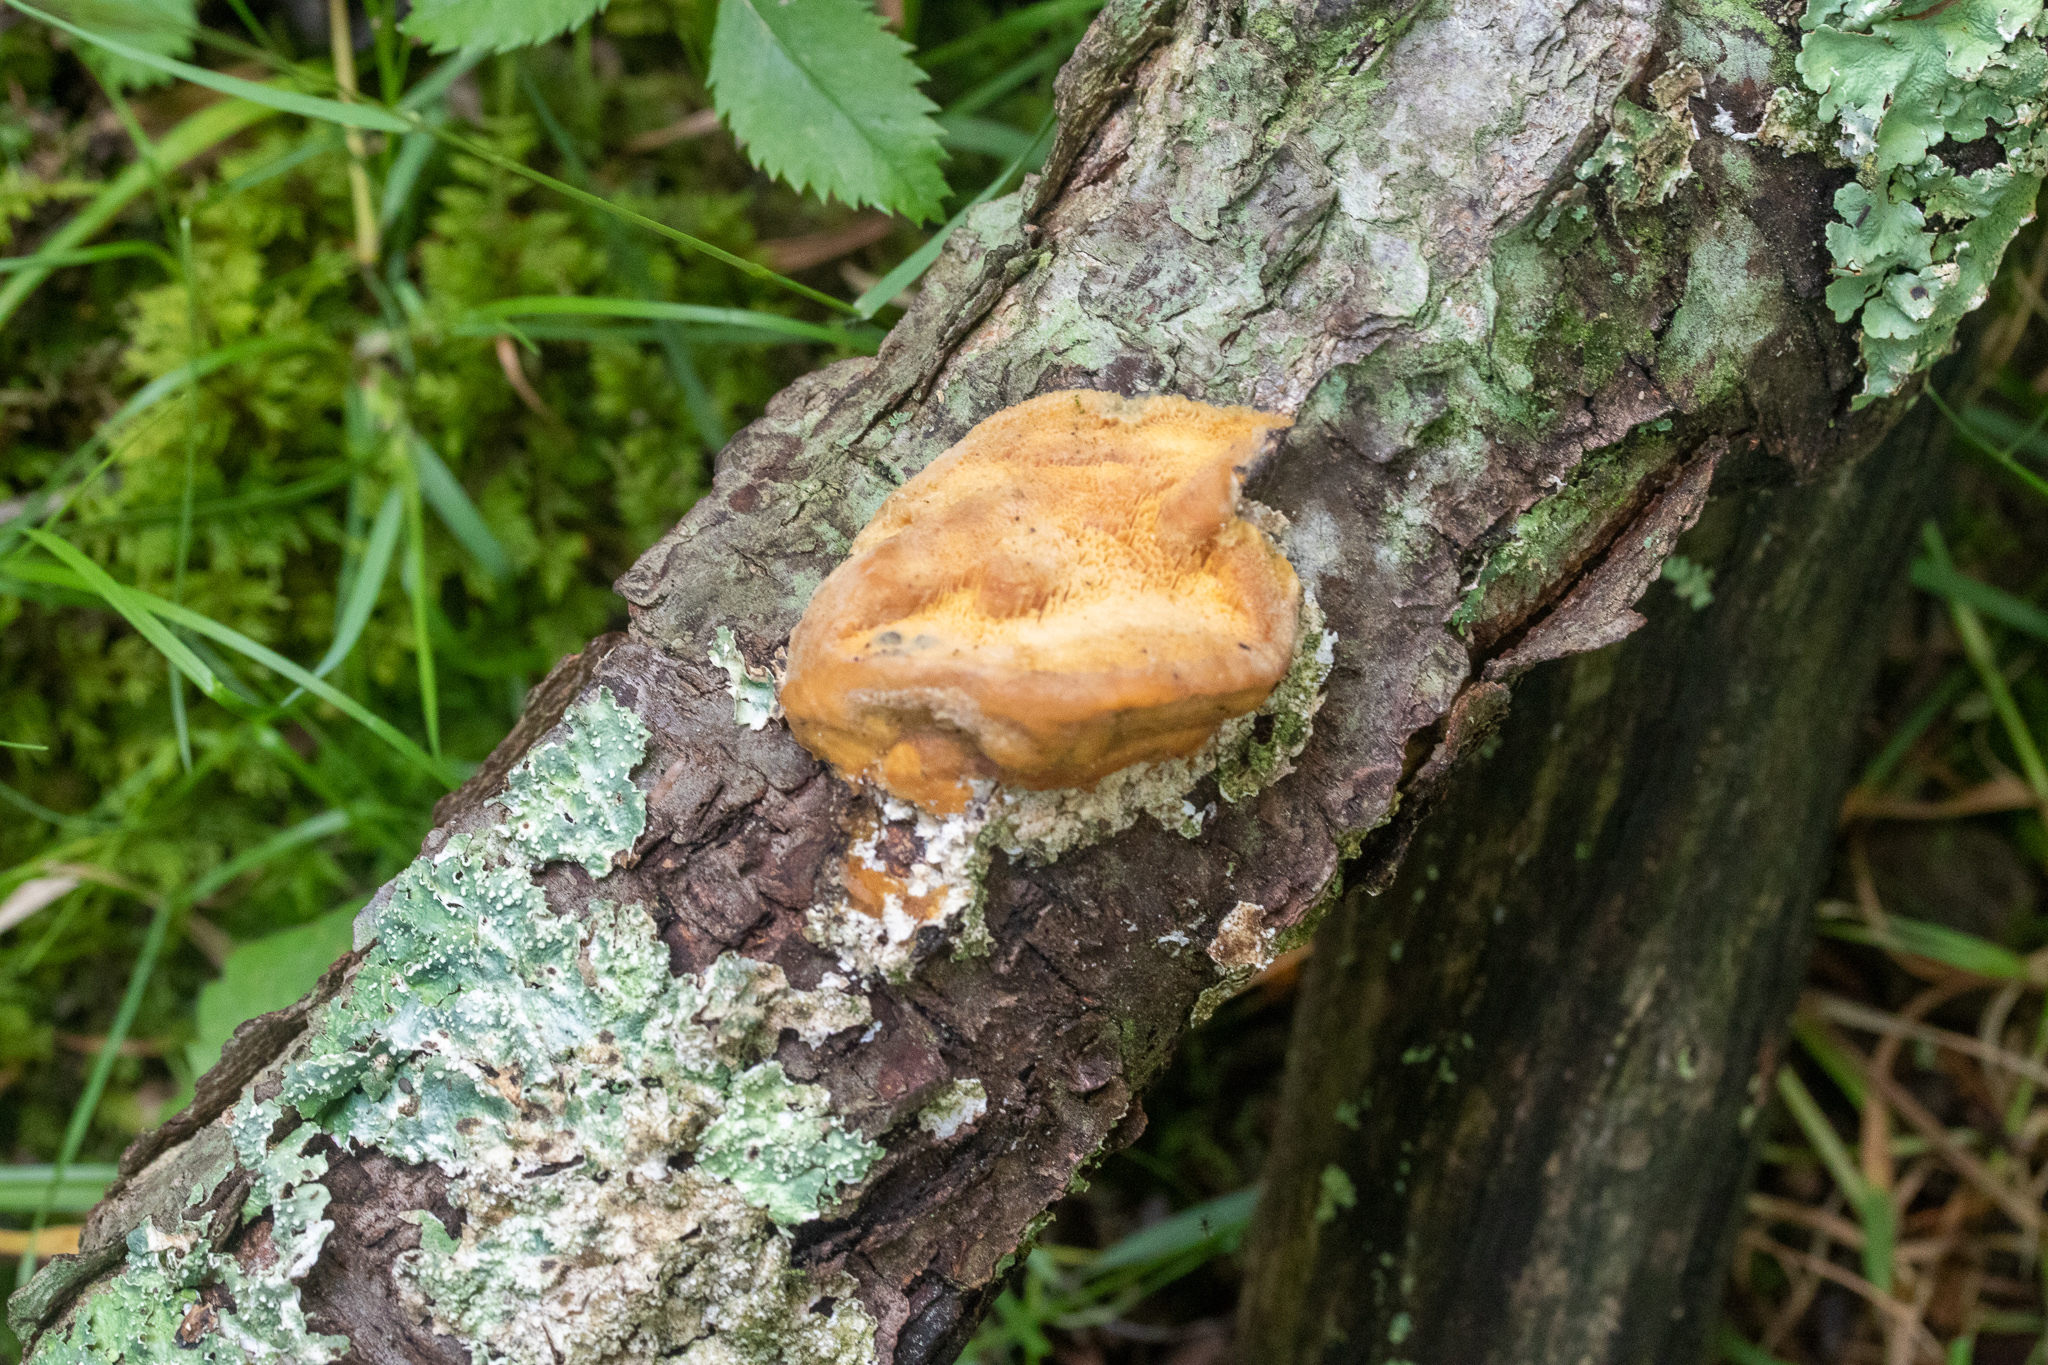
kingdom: Fungi
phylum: Basidiomycota
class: Agaricomycetes
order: Polyporales
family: Fomitopsidaceae
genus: Niveoporofomes
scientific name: Niveoporofomes spraguei
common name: Green cheese polypore
